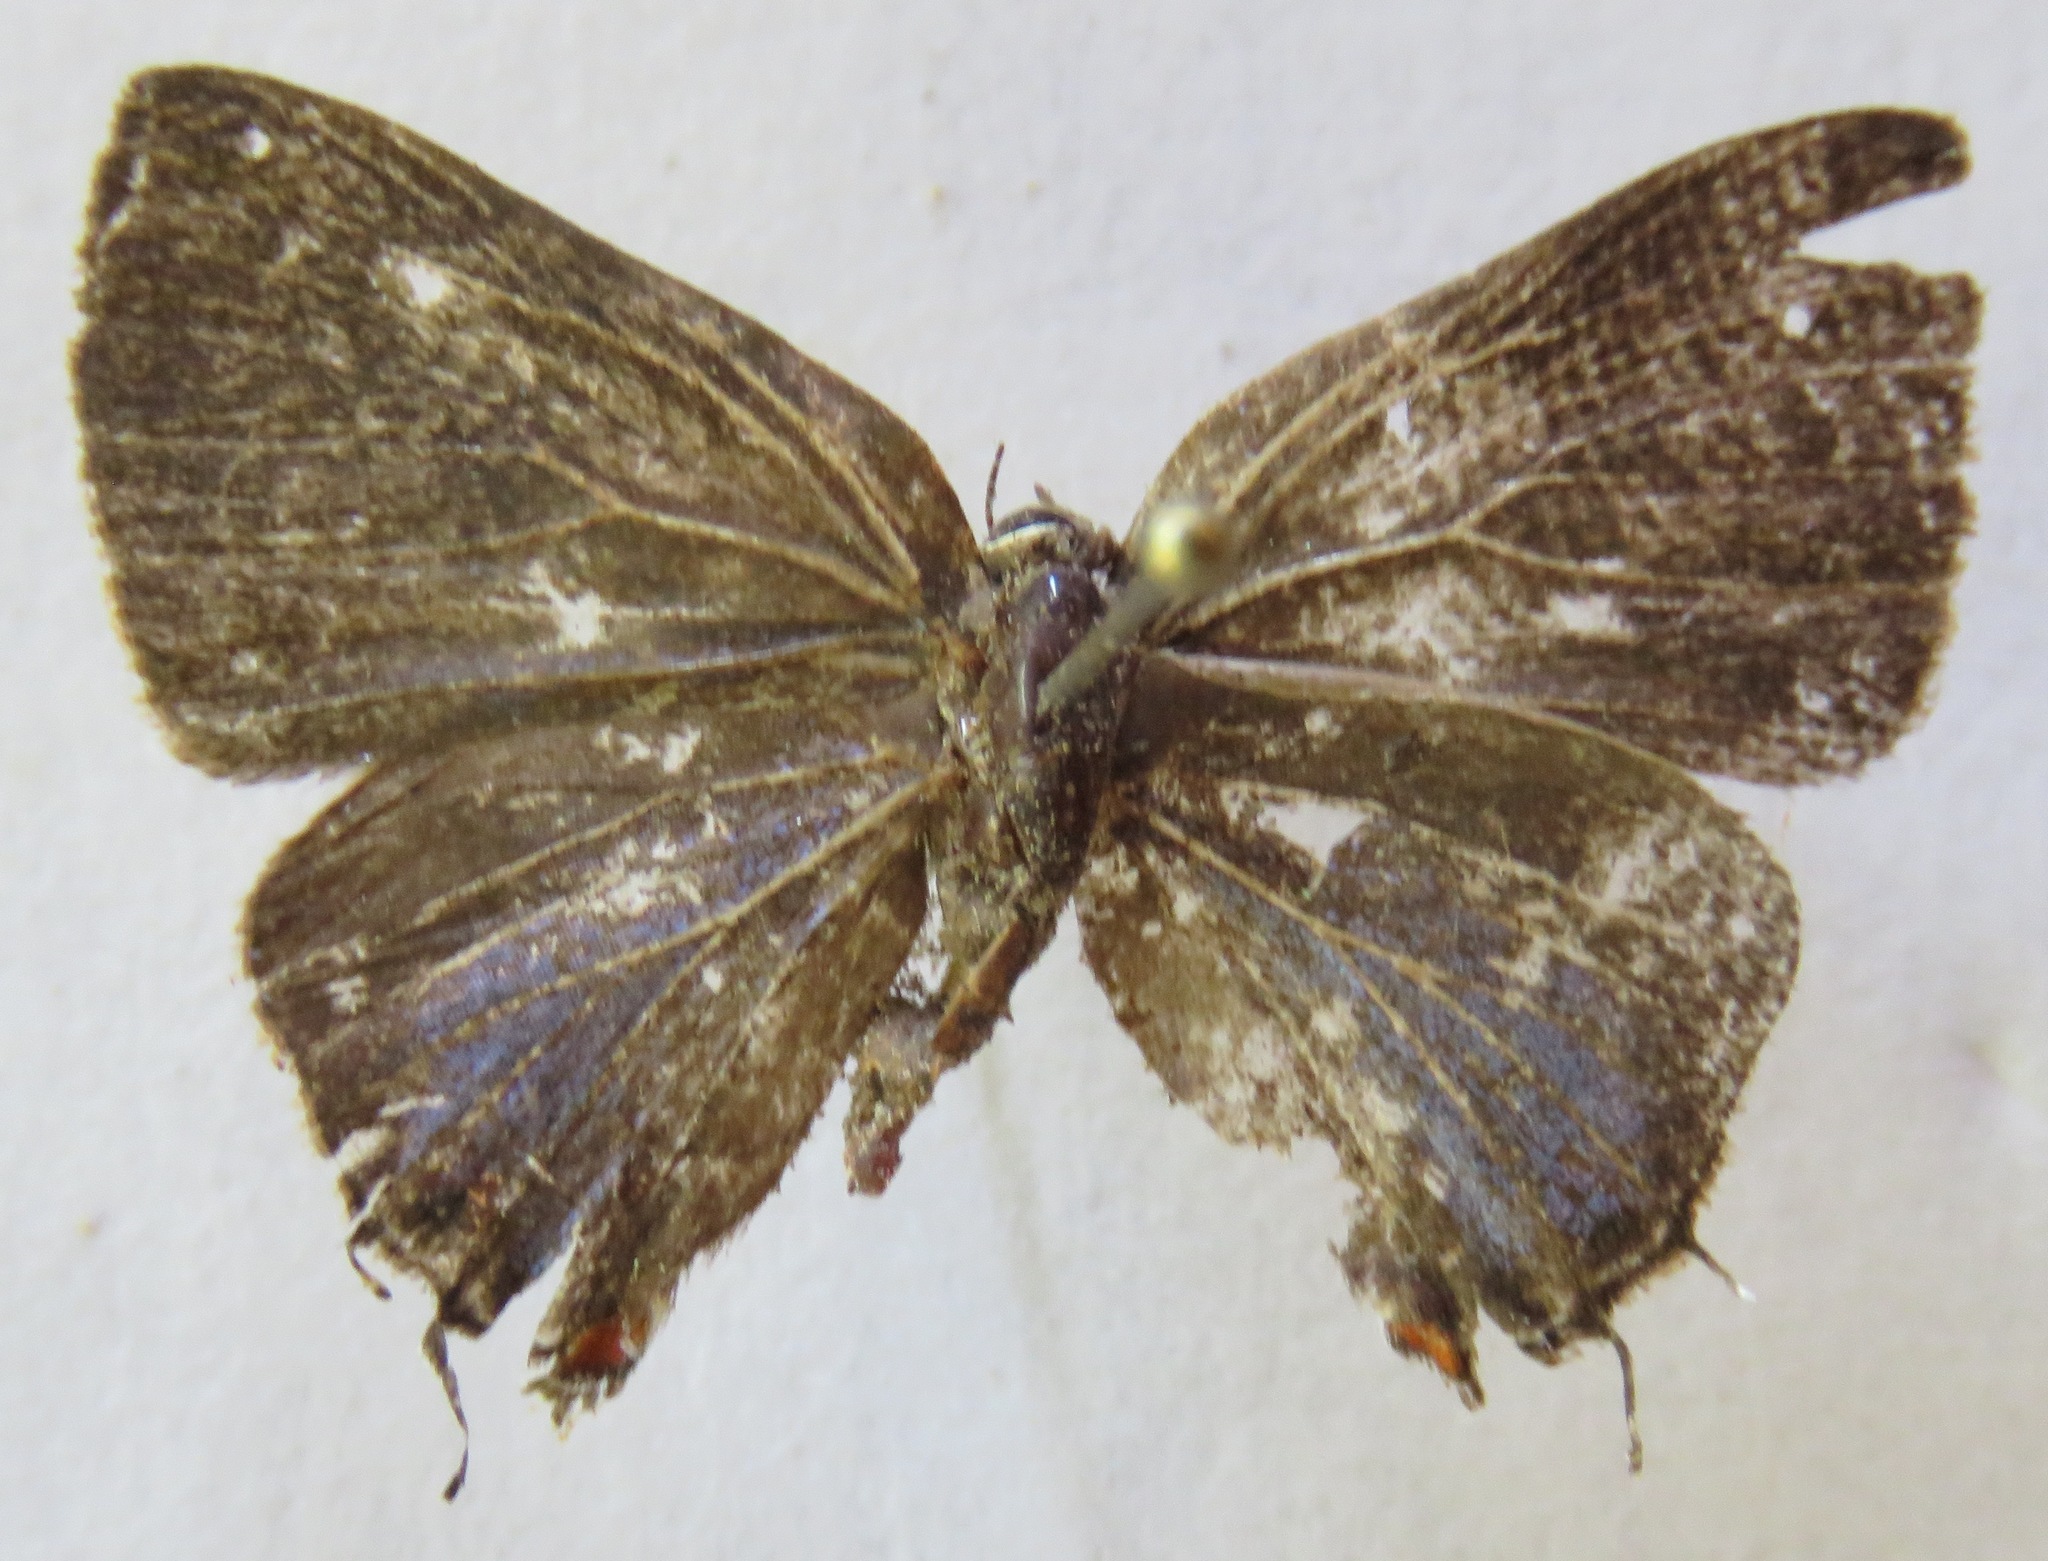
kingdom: Animalia
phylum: Arthropoda
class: Insecta
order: Lepidoptera
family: Lycaenidae
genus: Ziegleria
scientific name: Ziegleria hesperitis
